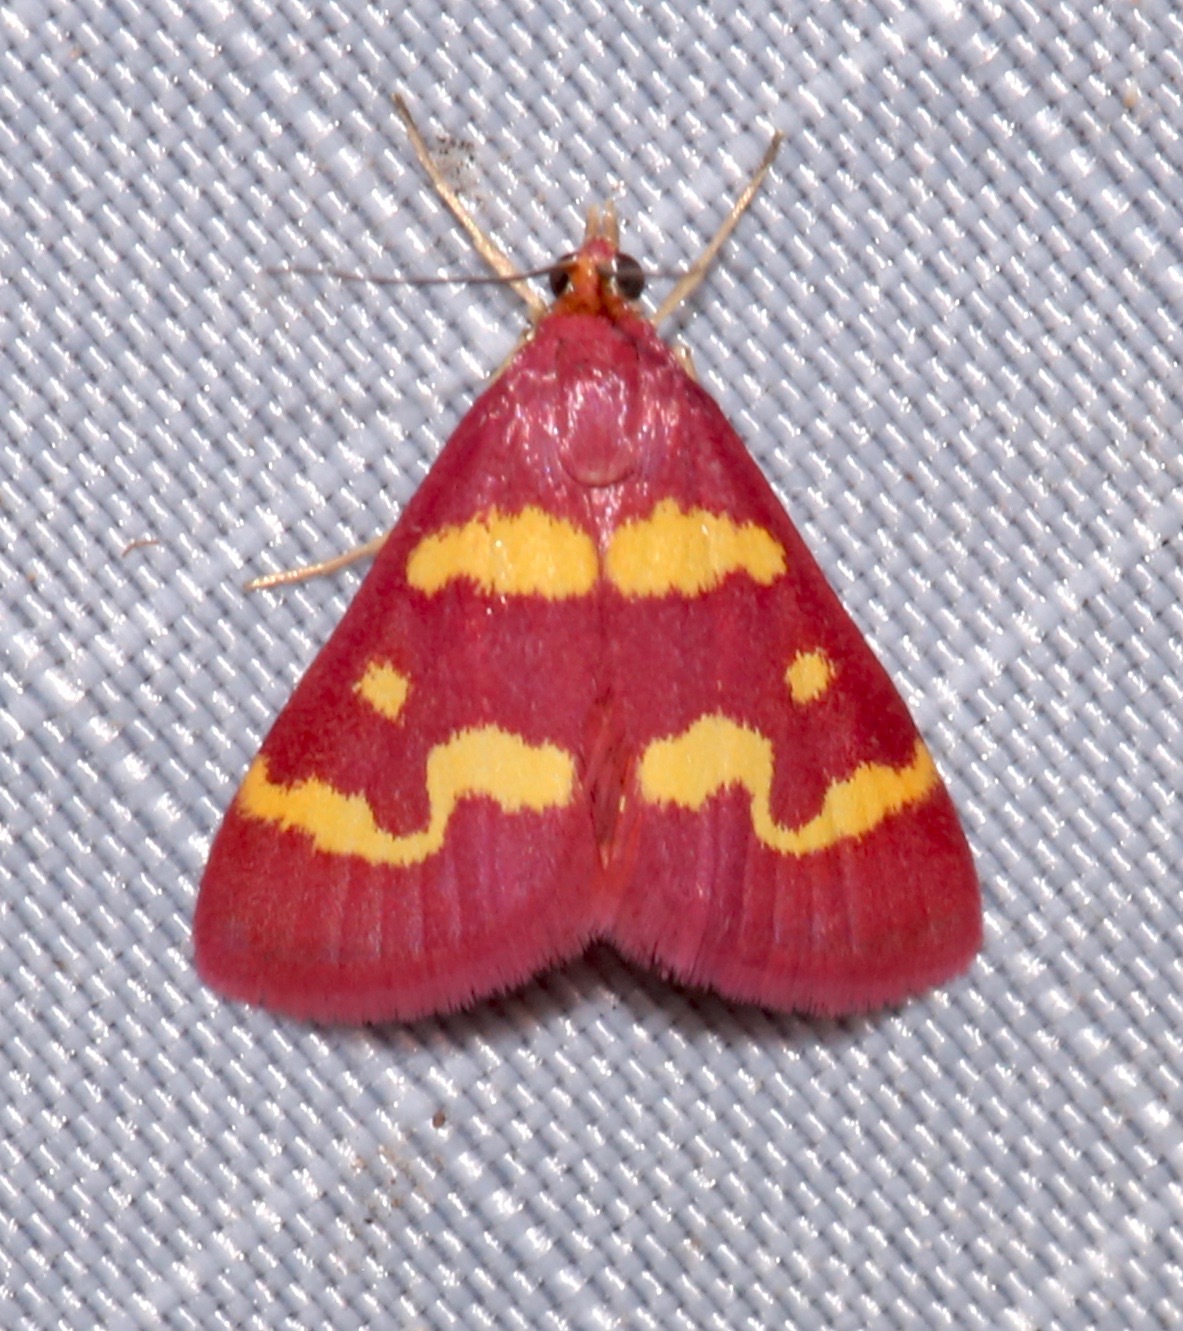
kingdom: Animalia
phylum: Arthropoda
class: Insecta
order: Lepidoptera
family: Crambidae
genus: Pyrausta
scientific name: Pyrausta tyralis
